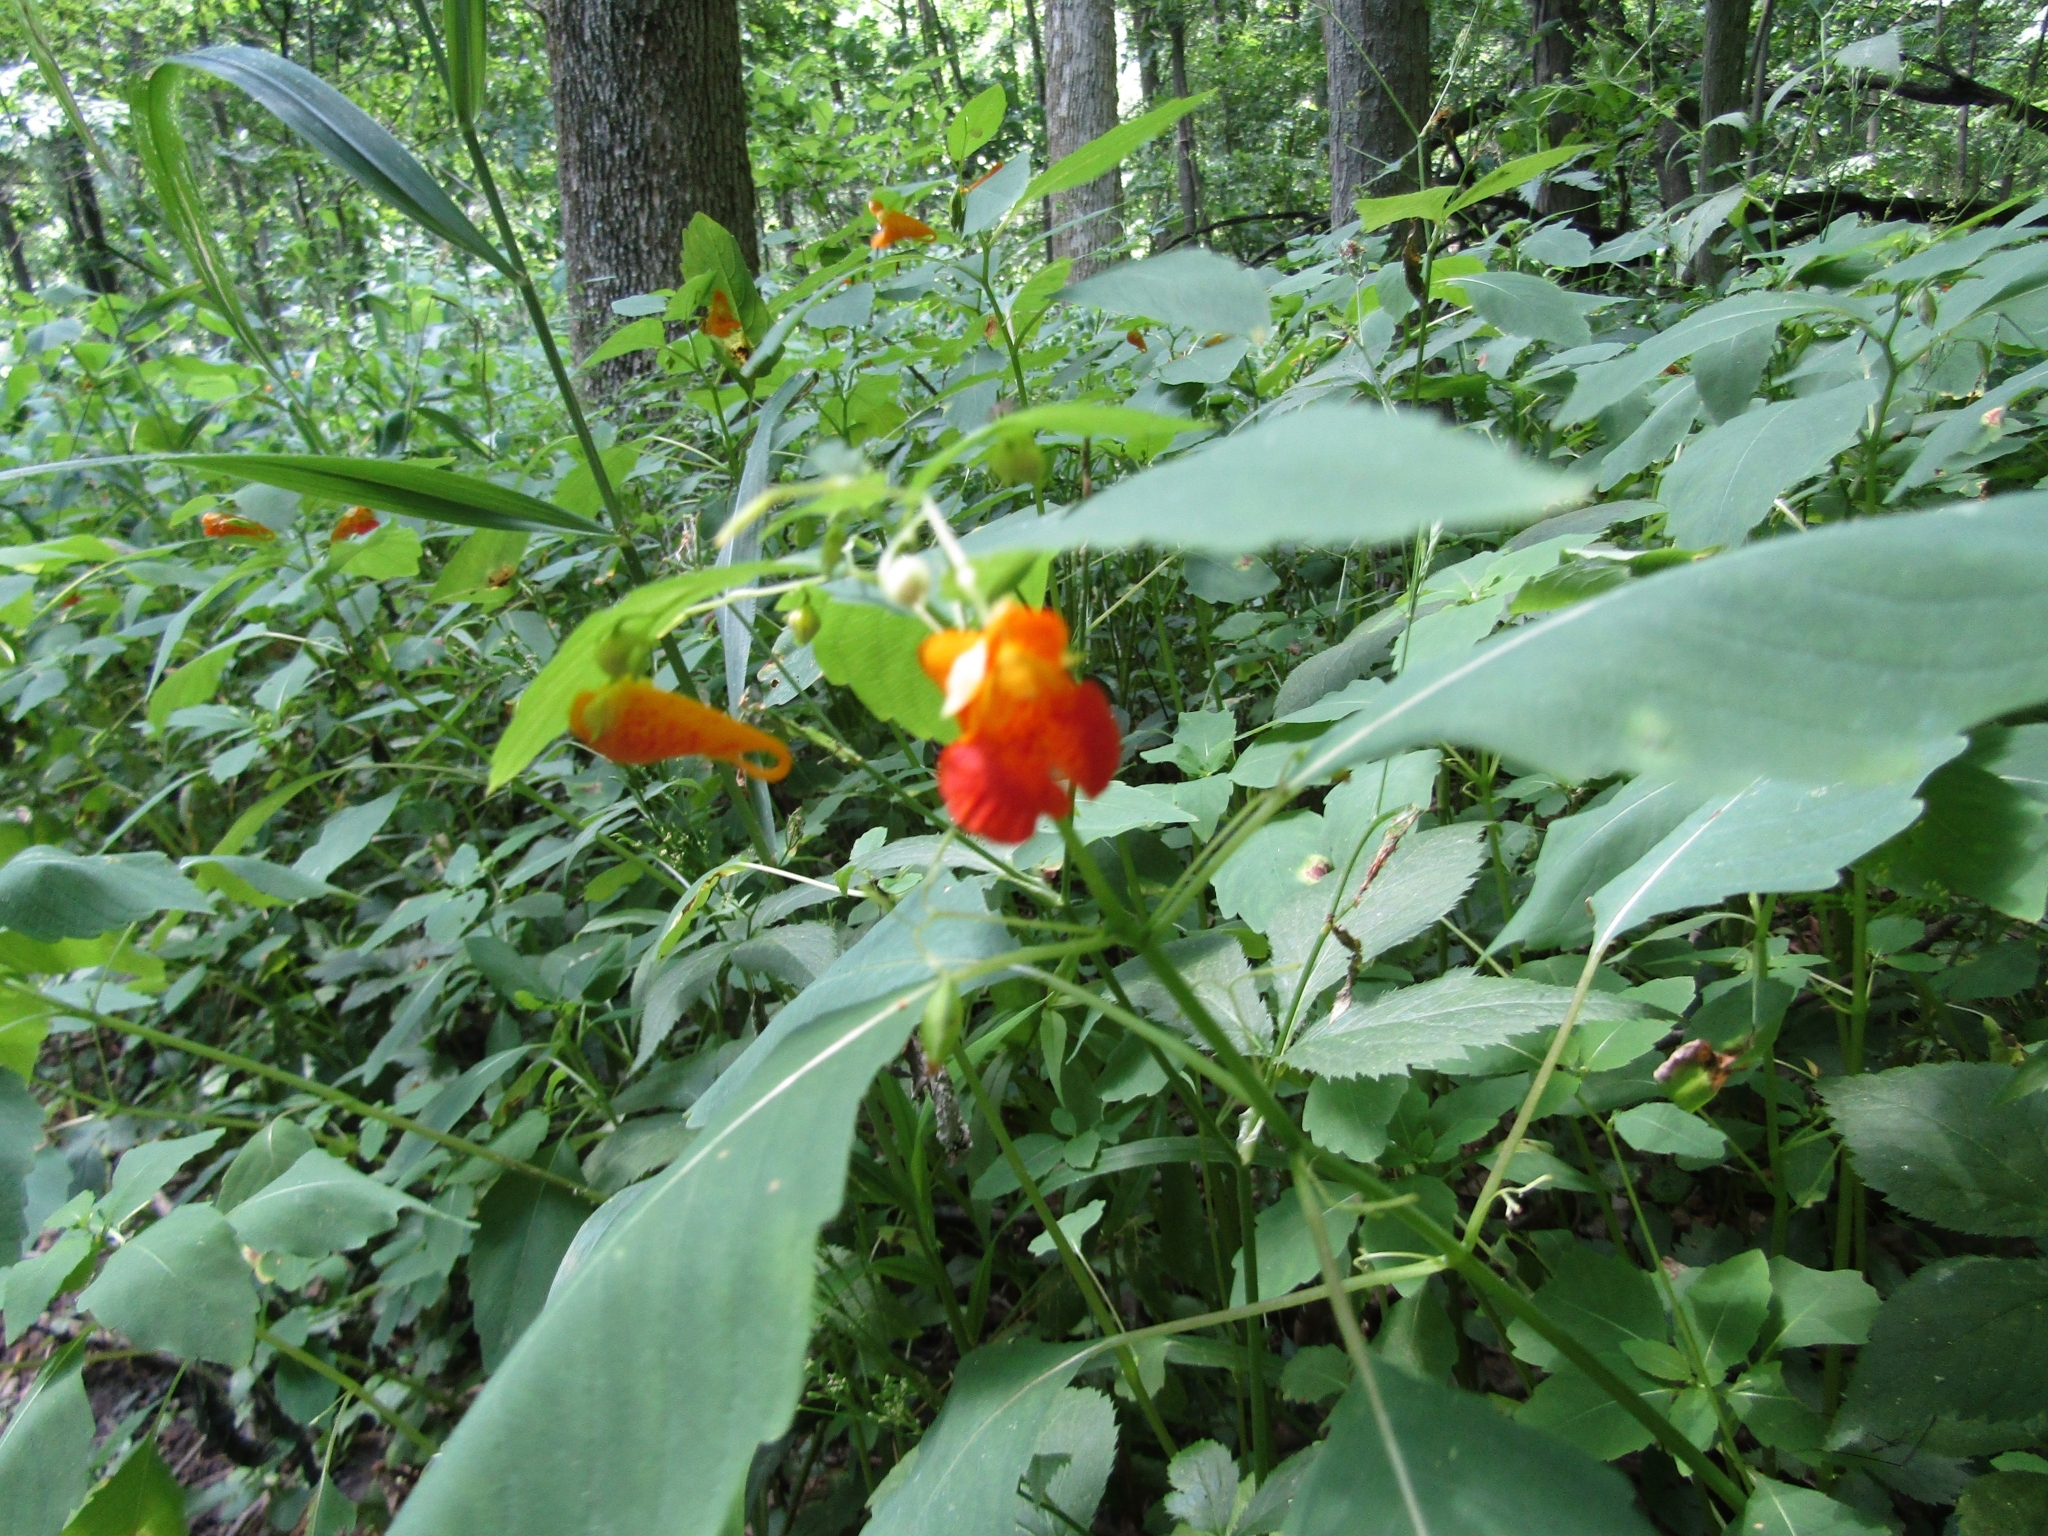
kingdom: Plantae
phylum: Tracheophyta
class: Magnoliopsida
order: Ericales
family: Balsaminaceae
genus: Impatiens
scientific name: Impatiens capensis
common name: Orange balsam
